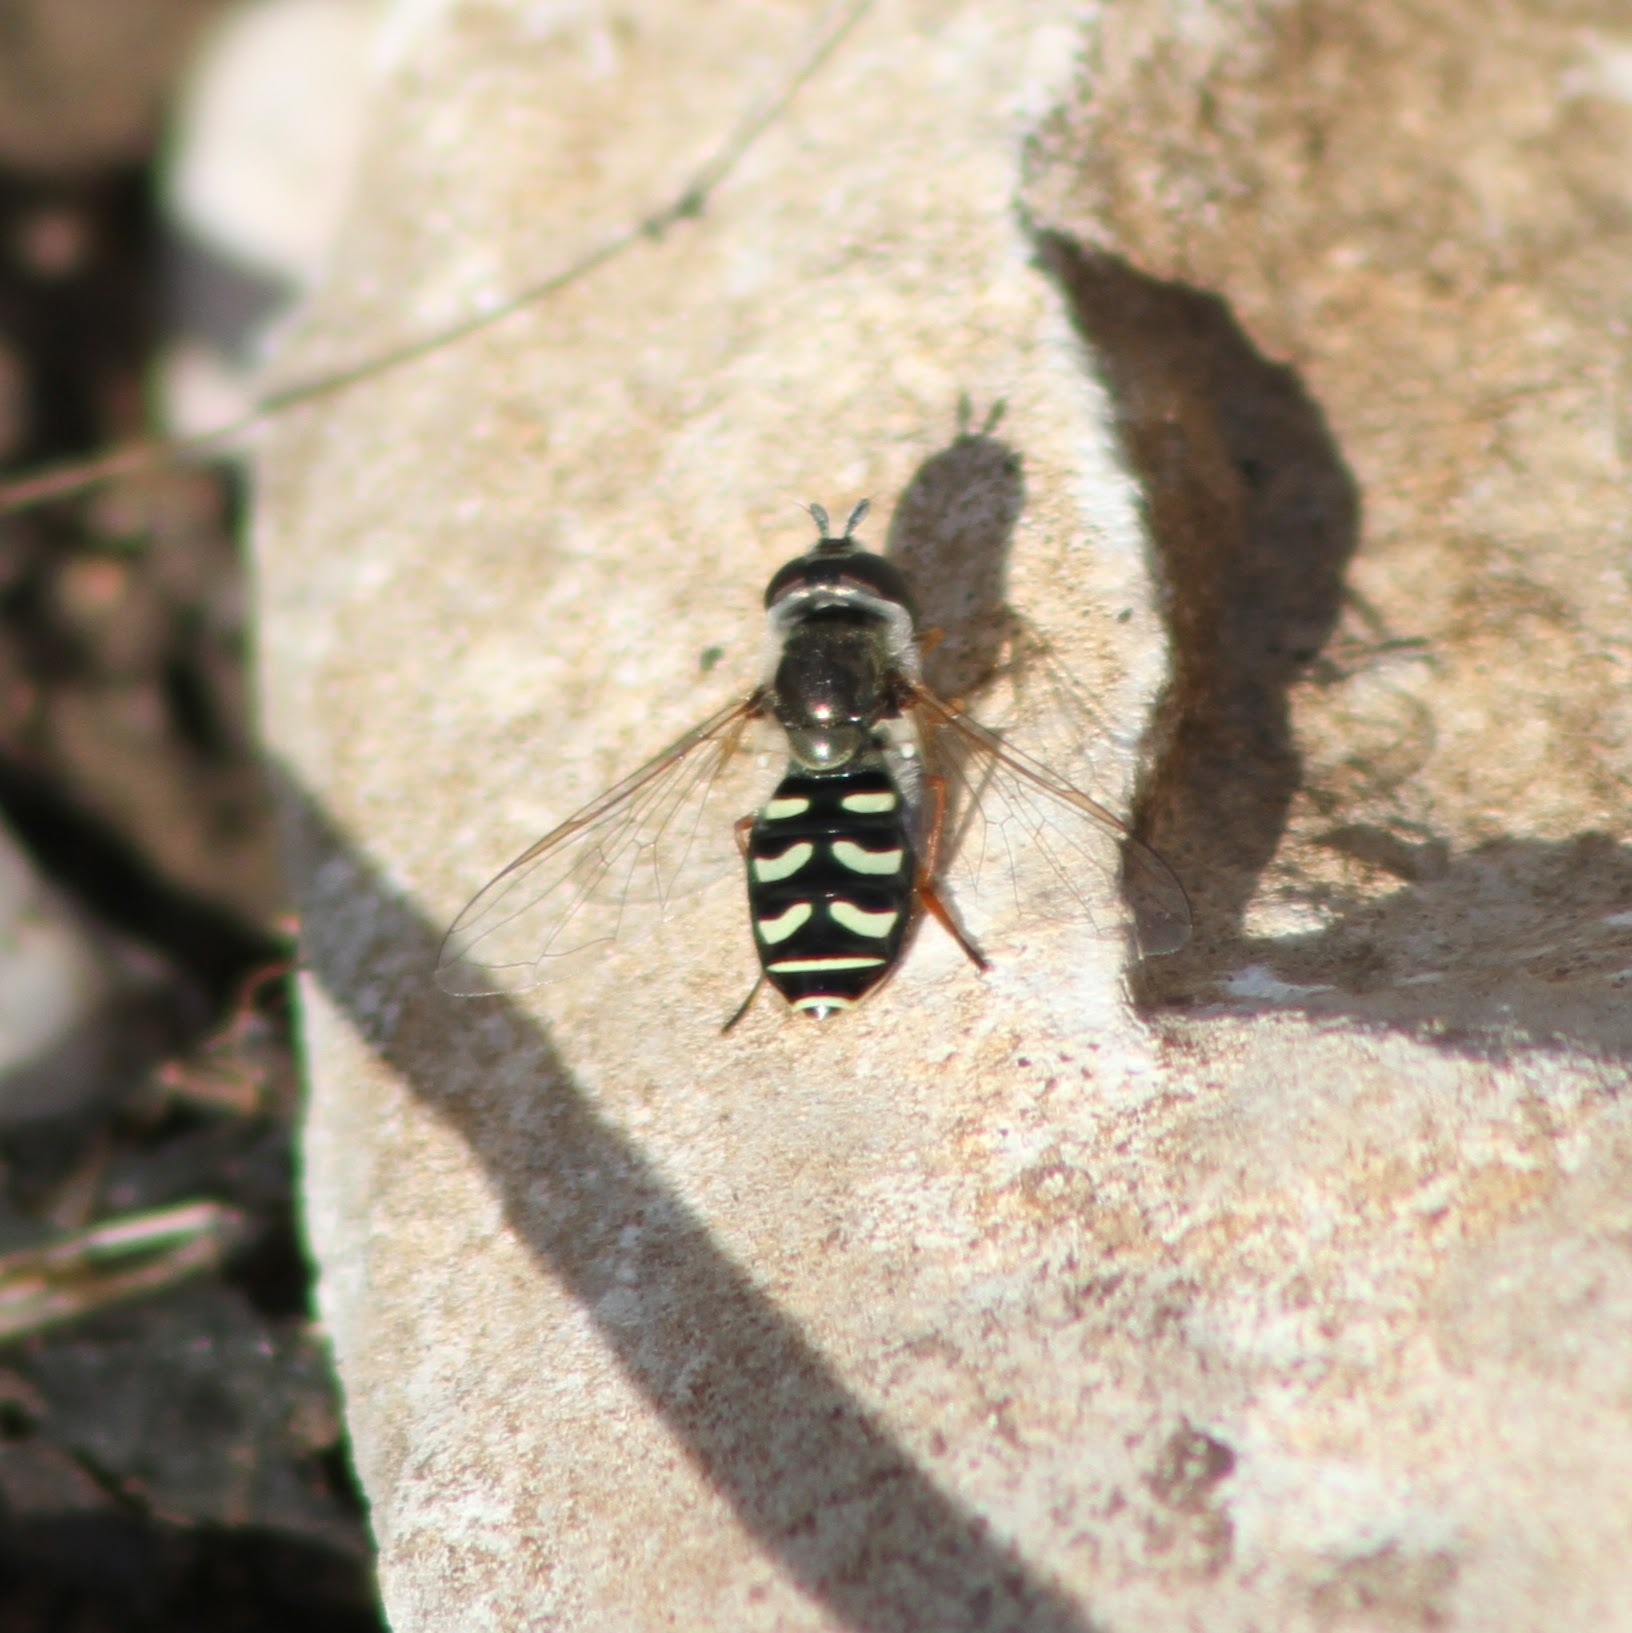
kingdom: Animalia
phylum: Arthropoda
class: Insecta
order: Diptera
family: Syrphidae
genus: Eupeodes
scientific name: Eupeodes volucris
